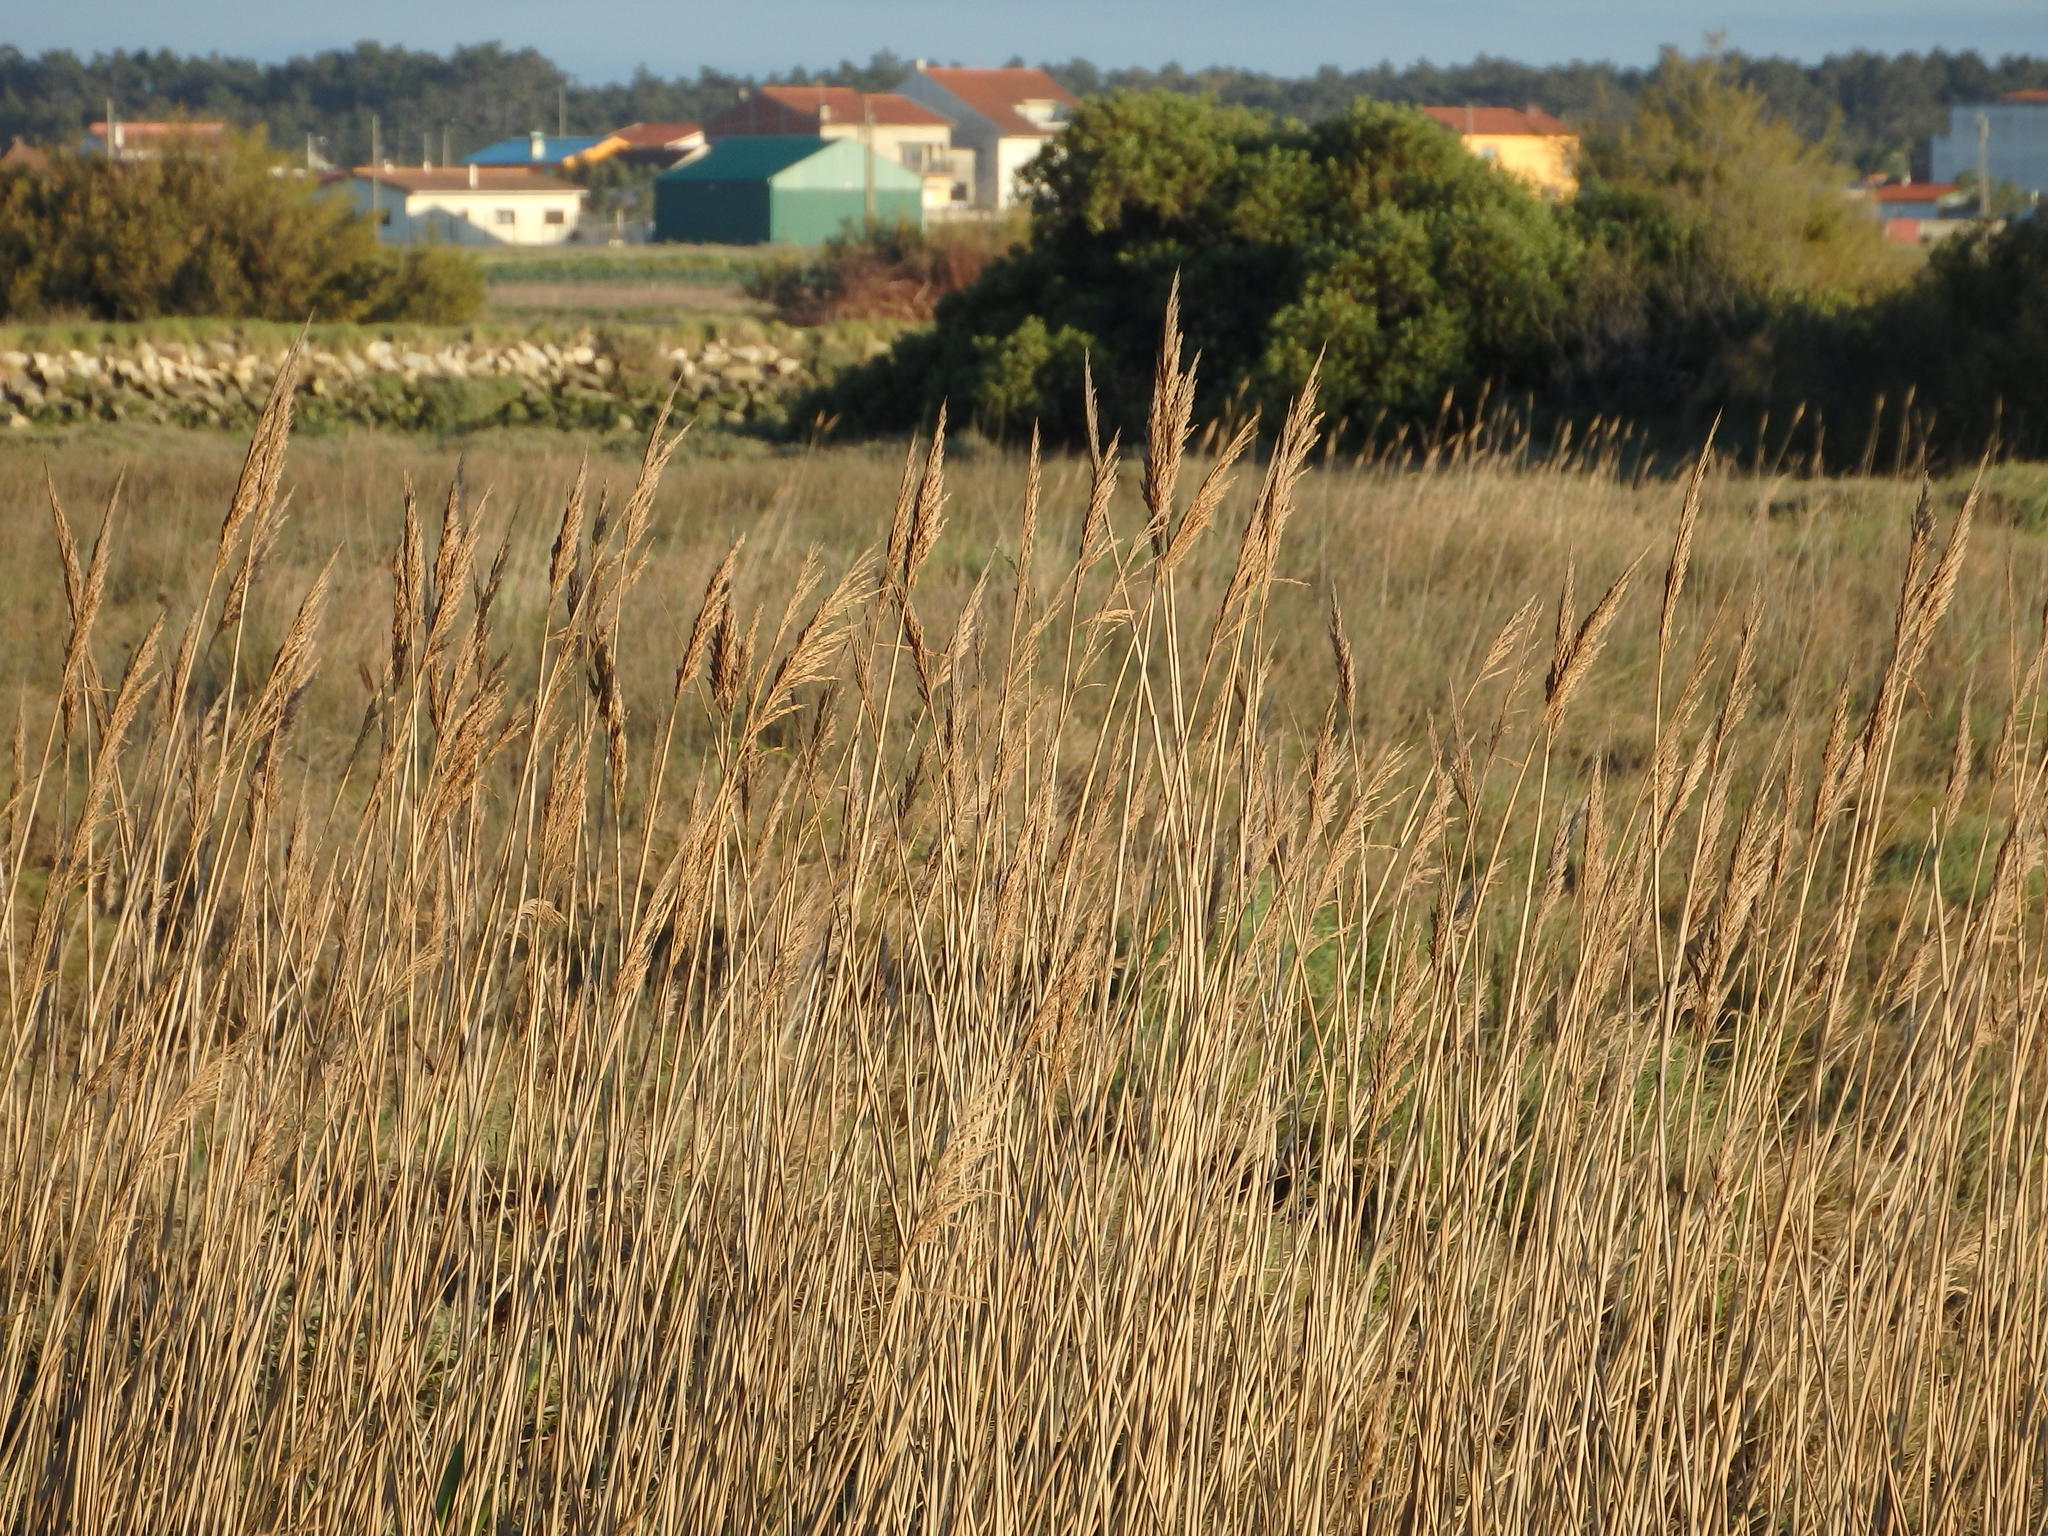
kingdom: Plantae
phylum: Tracheophyta
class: Liliopsida
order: Poales
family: Poaceae
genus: Phragmites
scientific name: Phragmites australis
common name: Common reed
